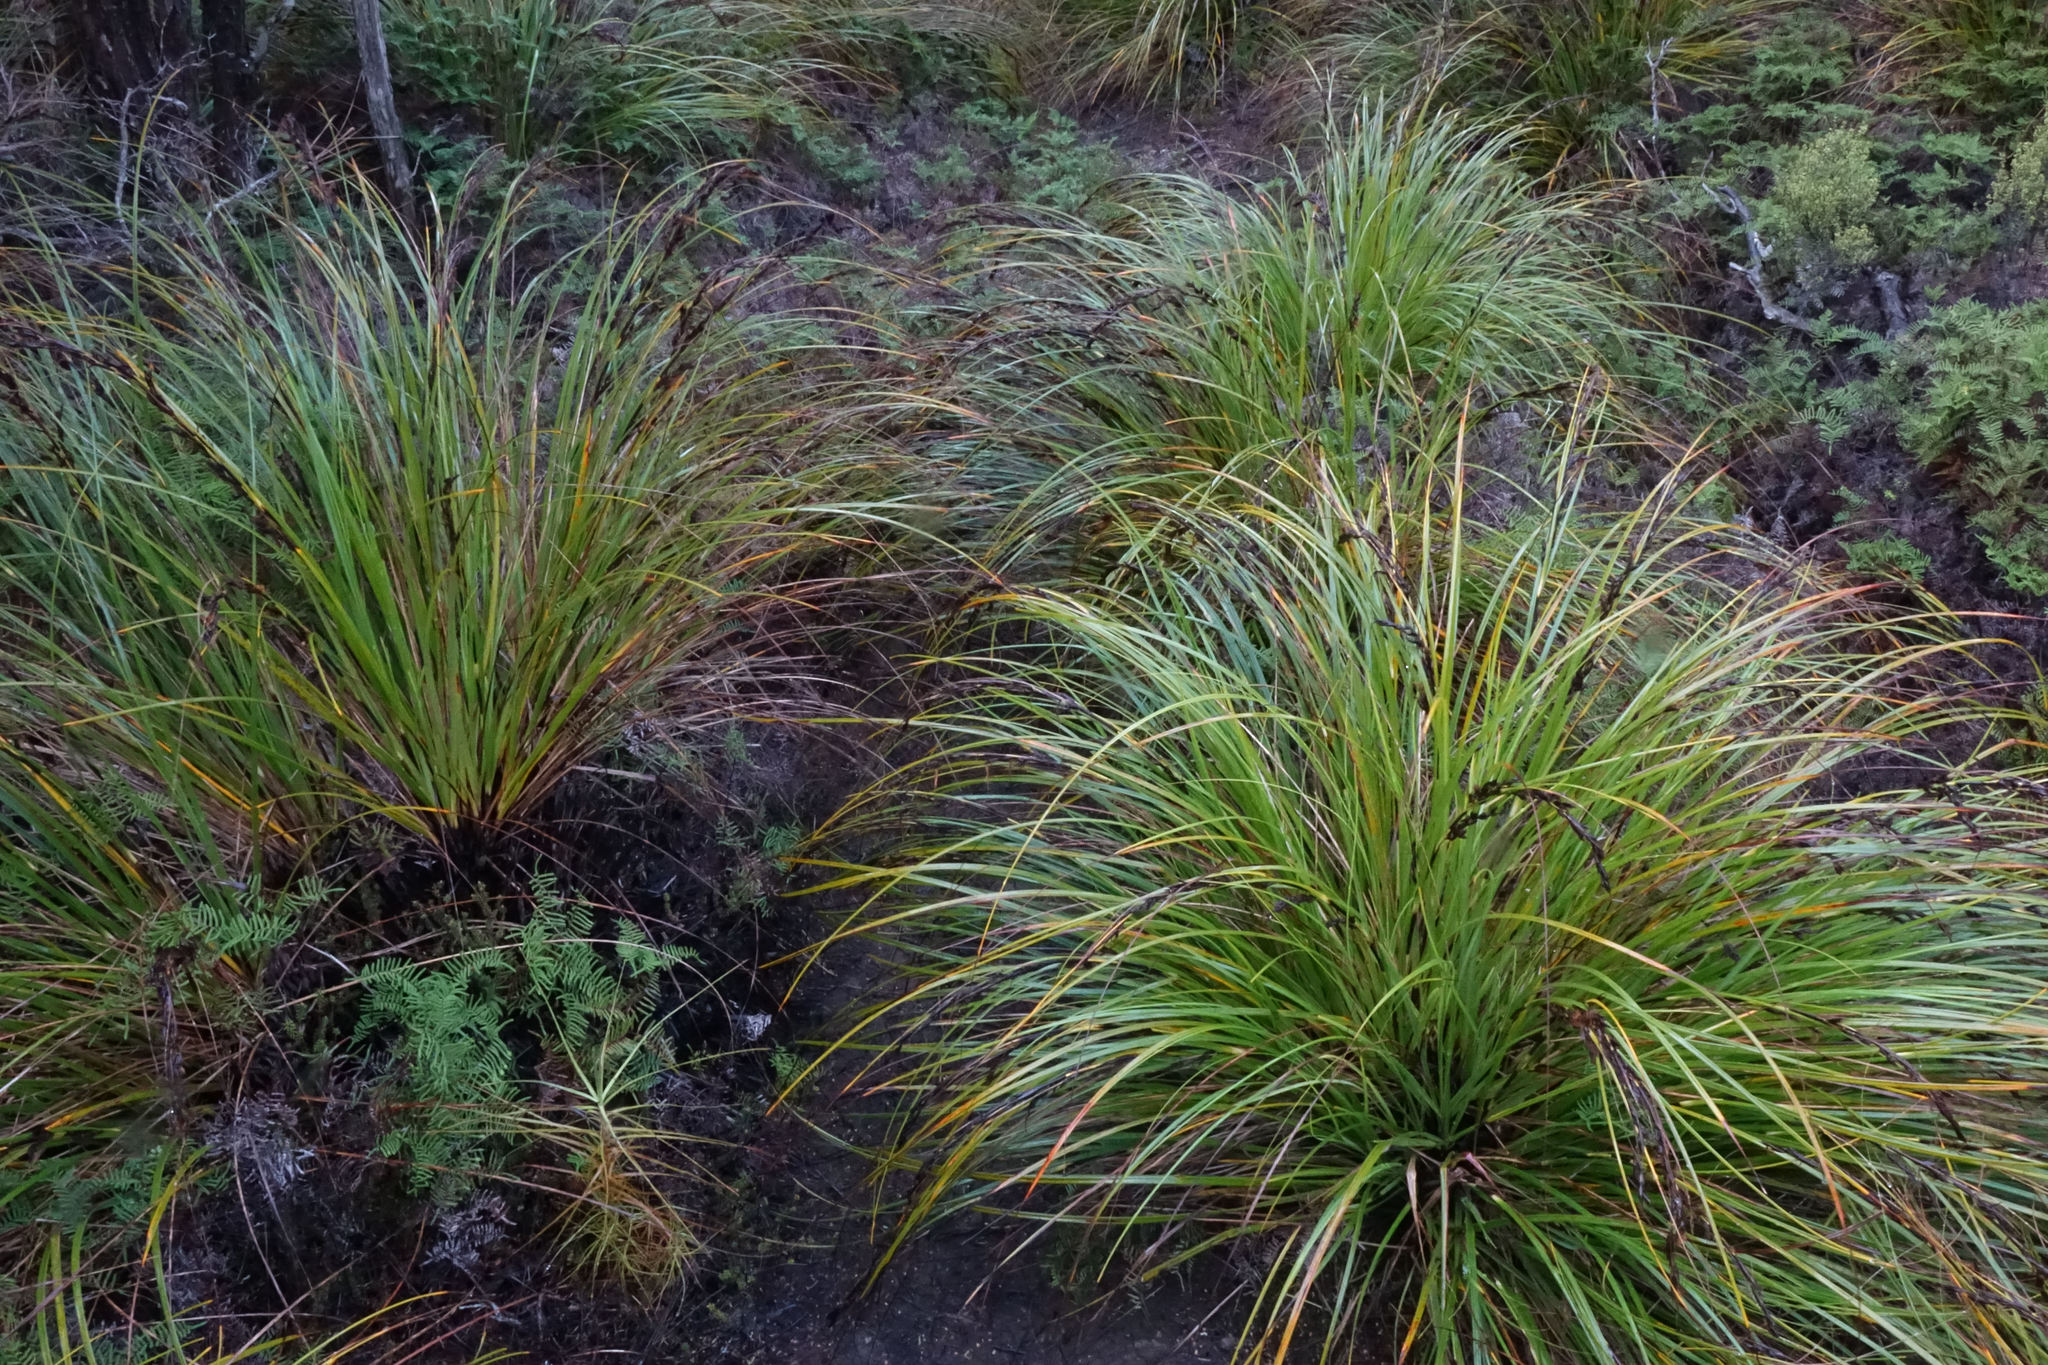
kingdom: Plantae
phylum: Tracheophyta
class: Liliopsida
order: Poales
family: Cyperaceae
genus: Gahnia
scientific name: Gahnia procera
